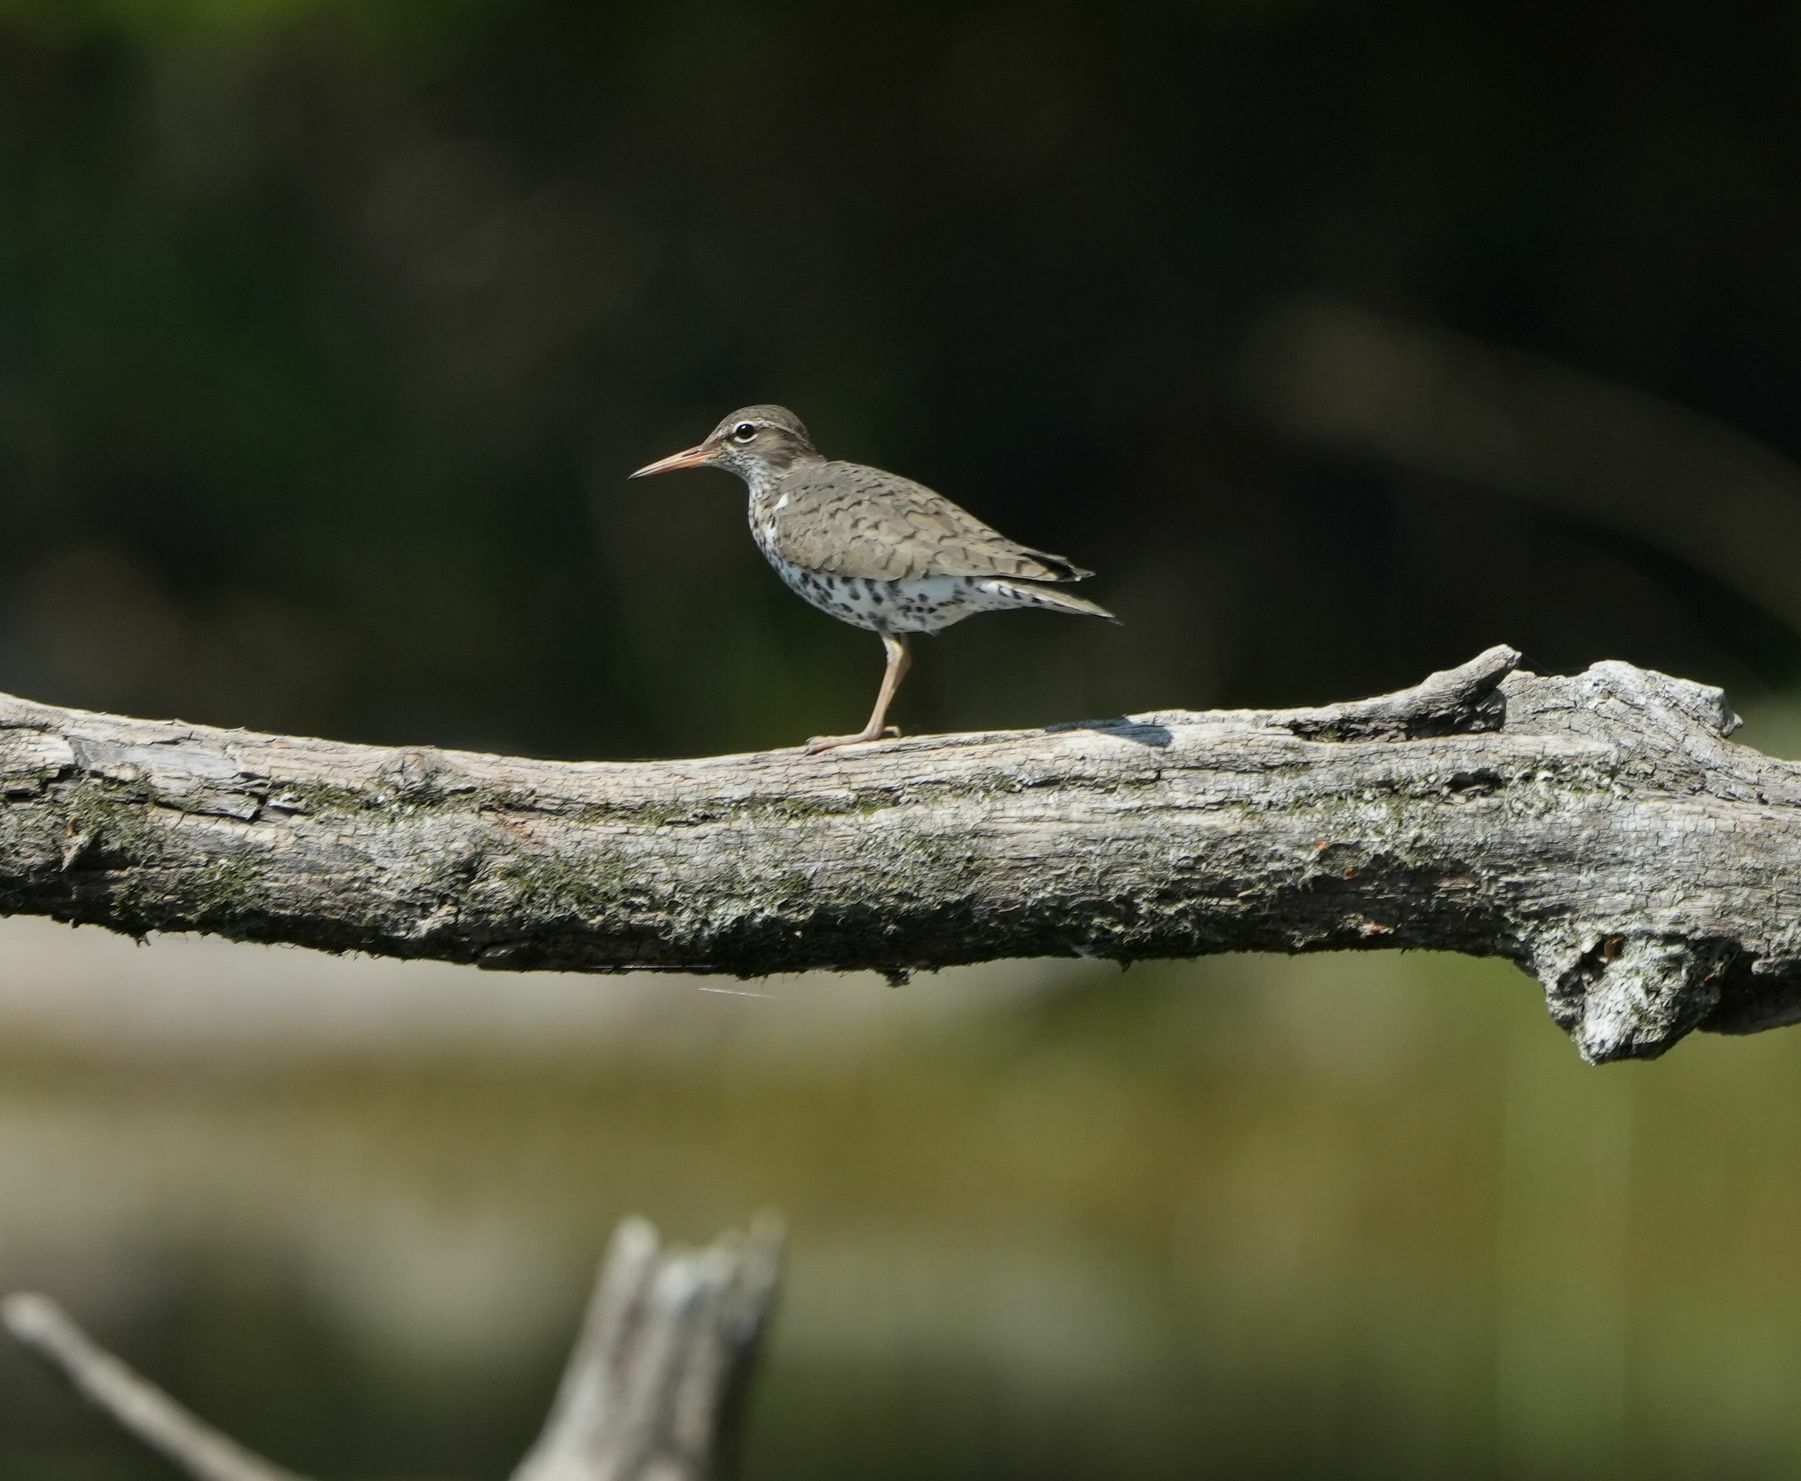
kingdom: Animalia
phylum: Chordata
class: Aves
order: Charadriiformes
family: Scolopacidae
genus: Actitis
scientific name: Actitis macularius
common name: Spotted sandpiper
